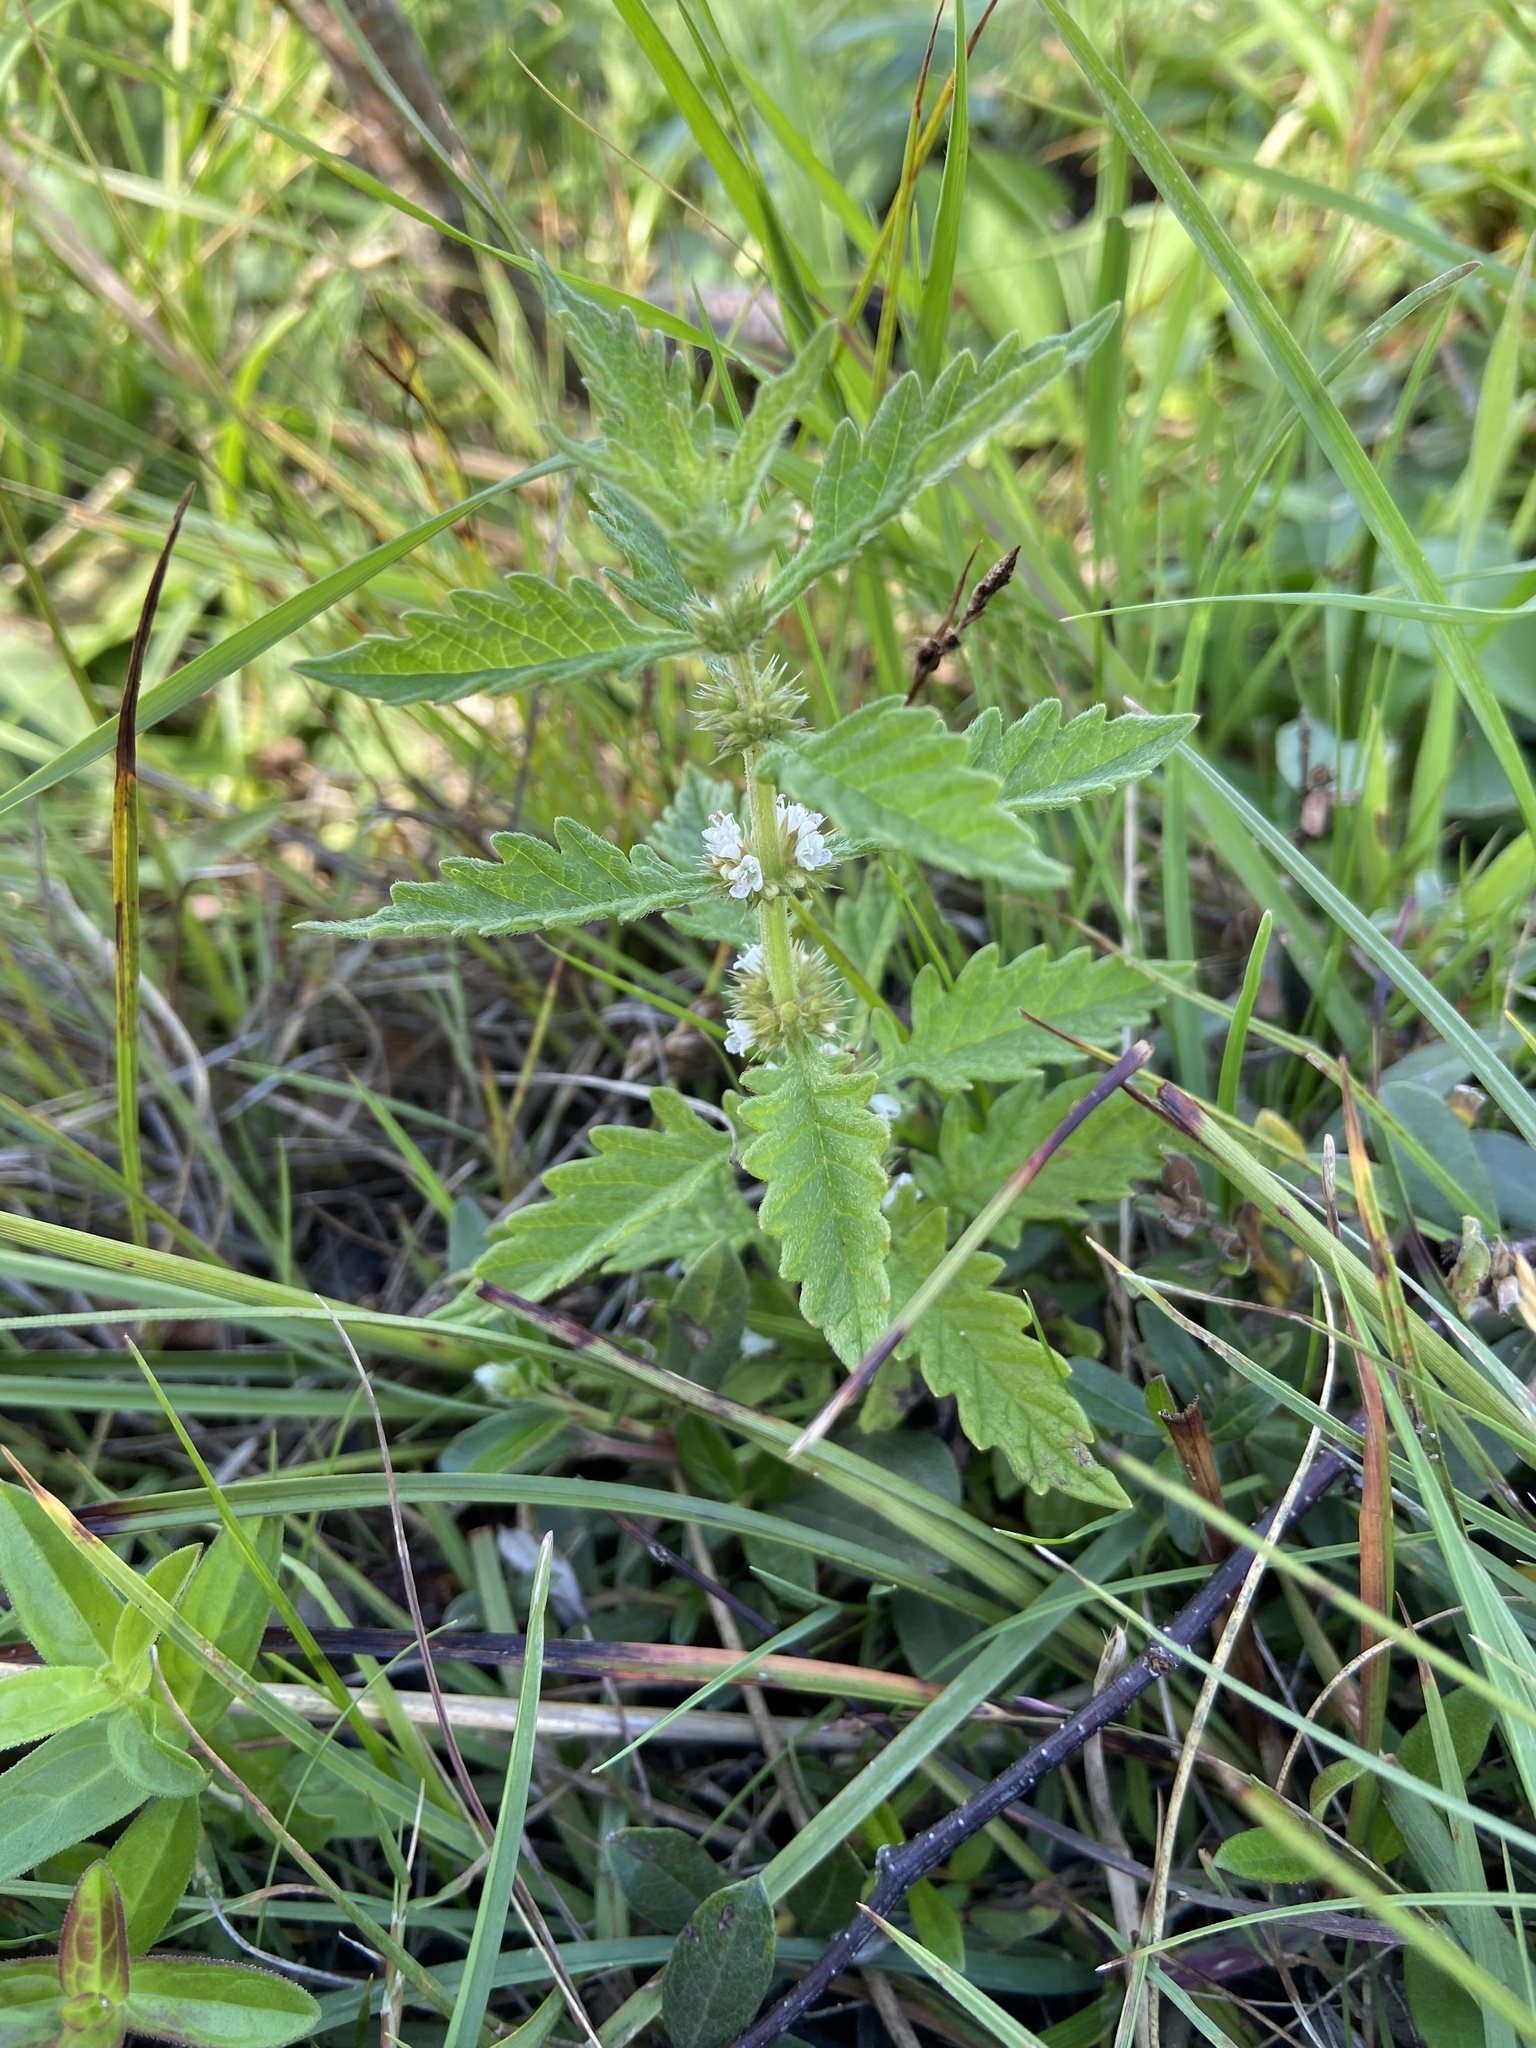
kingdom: Plantae
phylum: Tracheophyta
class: Magnoliopsida
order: Lamiales
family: Lamiaceae
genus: Lycopus
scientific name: Lycopus europaeus
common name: European bugleweed
